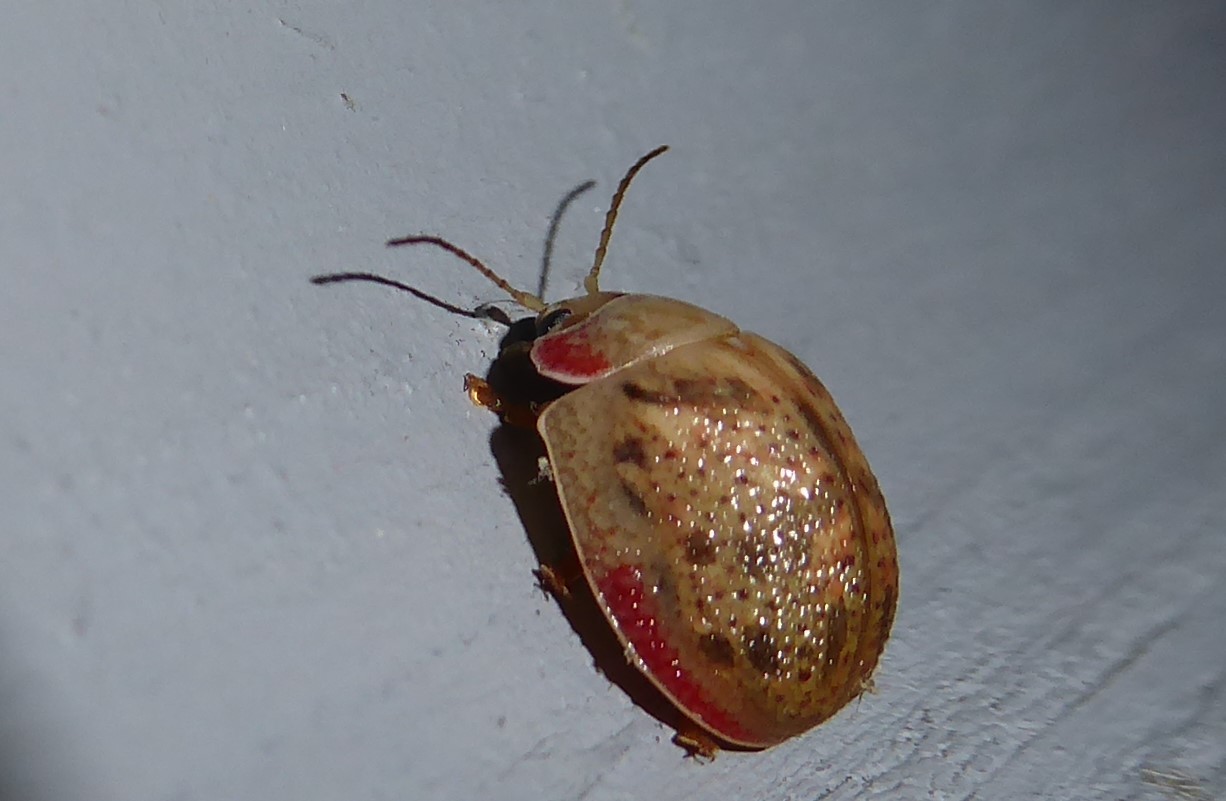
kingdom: Animalia
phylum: Arthropoda
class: Insecta
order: Coleoptera
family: Chrysomelidae
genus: Paropsis
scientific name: Paropsis charybdis
